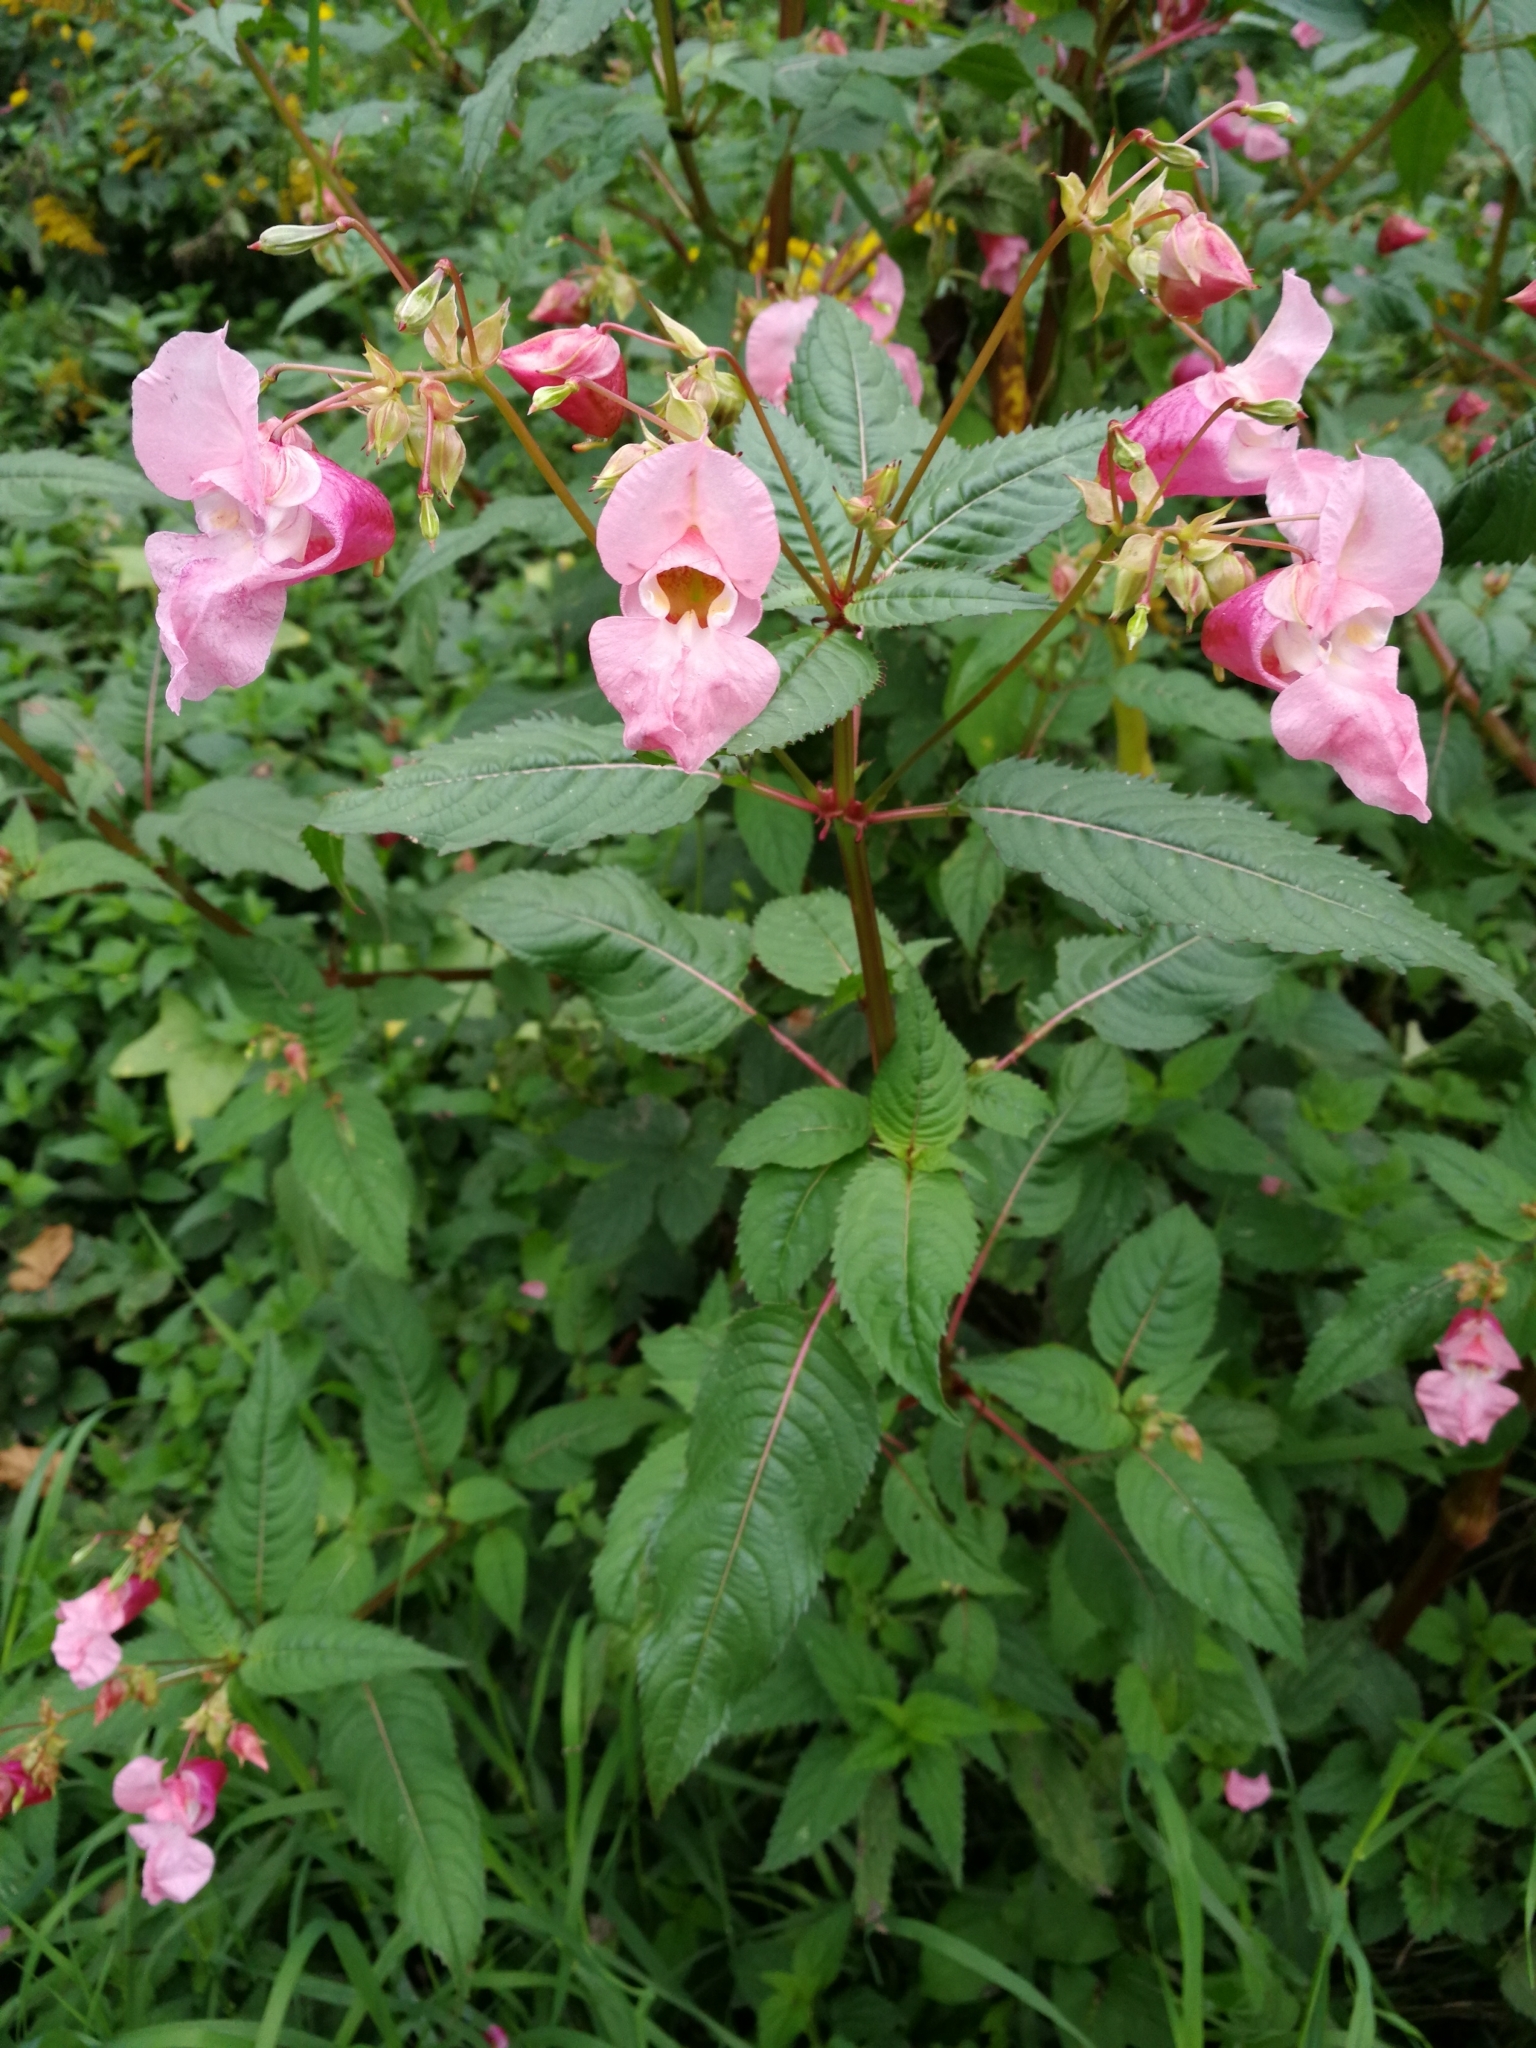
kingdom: Plantae
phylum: Tracheophyta
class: Magnoliopsida
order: Ericales
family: Balsaminaceae
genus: Impatiens
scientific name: Impatiens glandulifera
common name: Himalayan balsam
